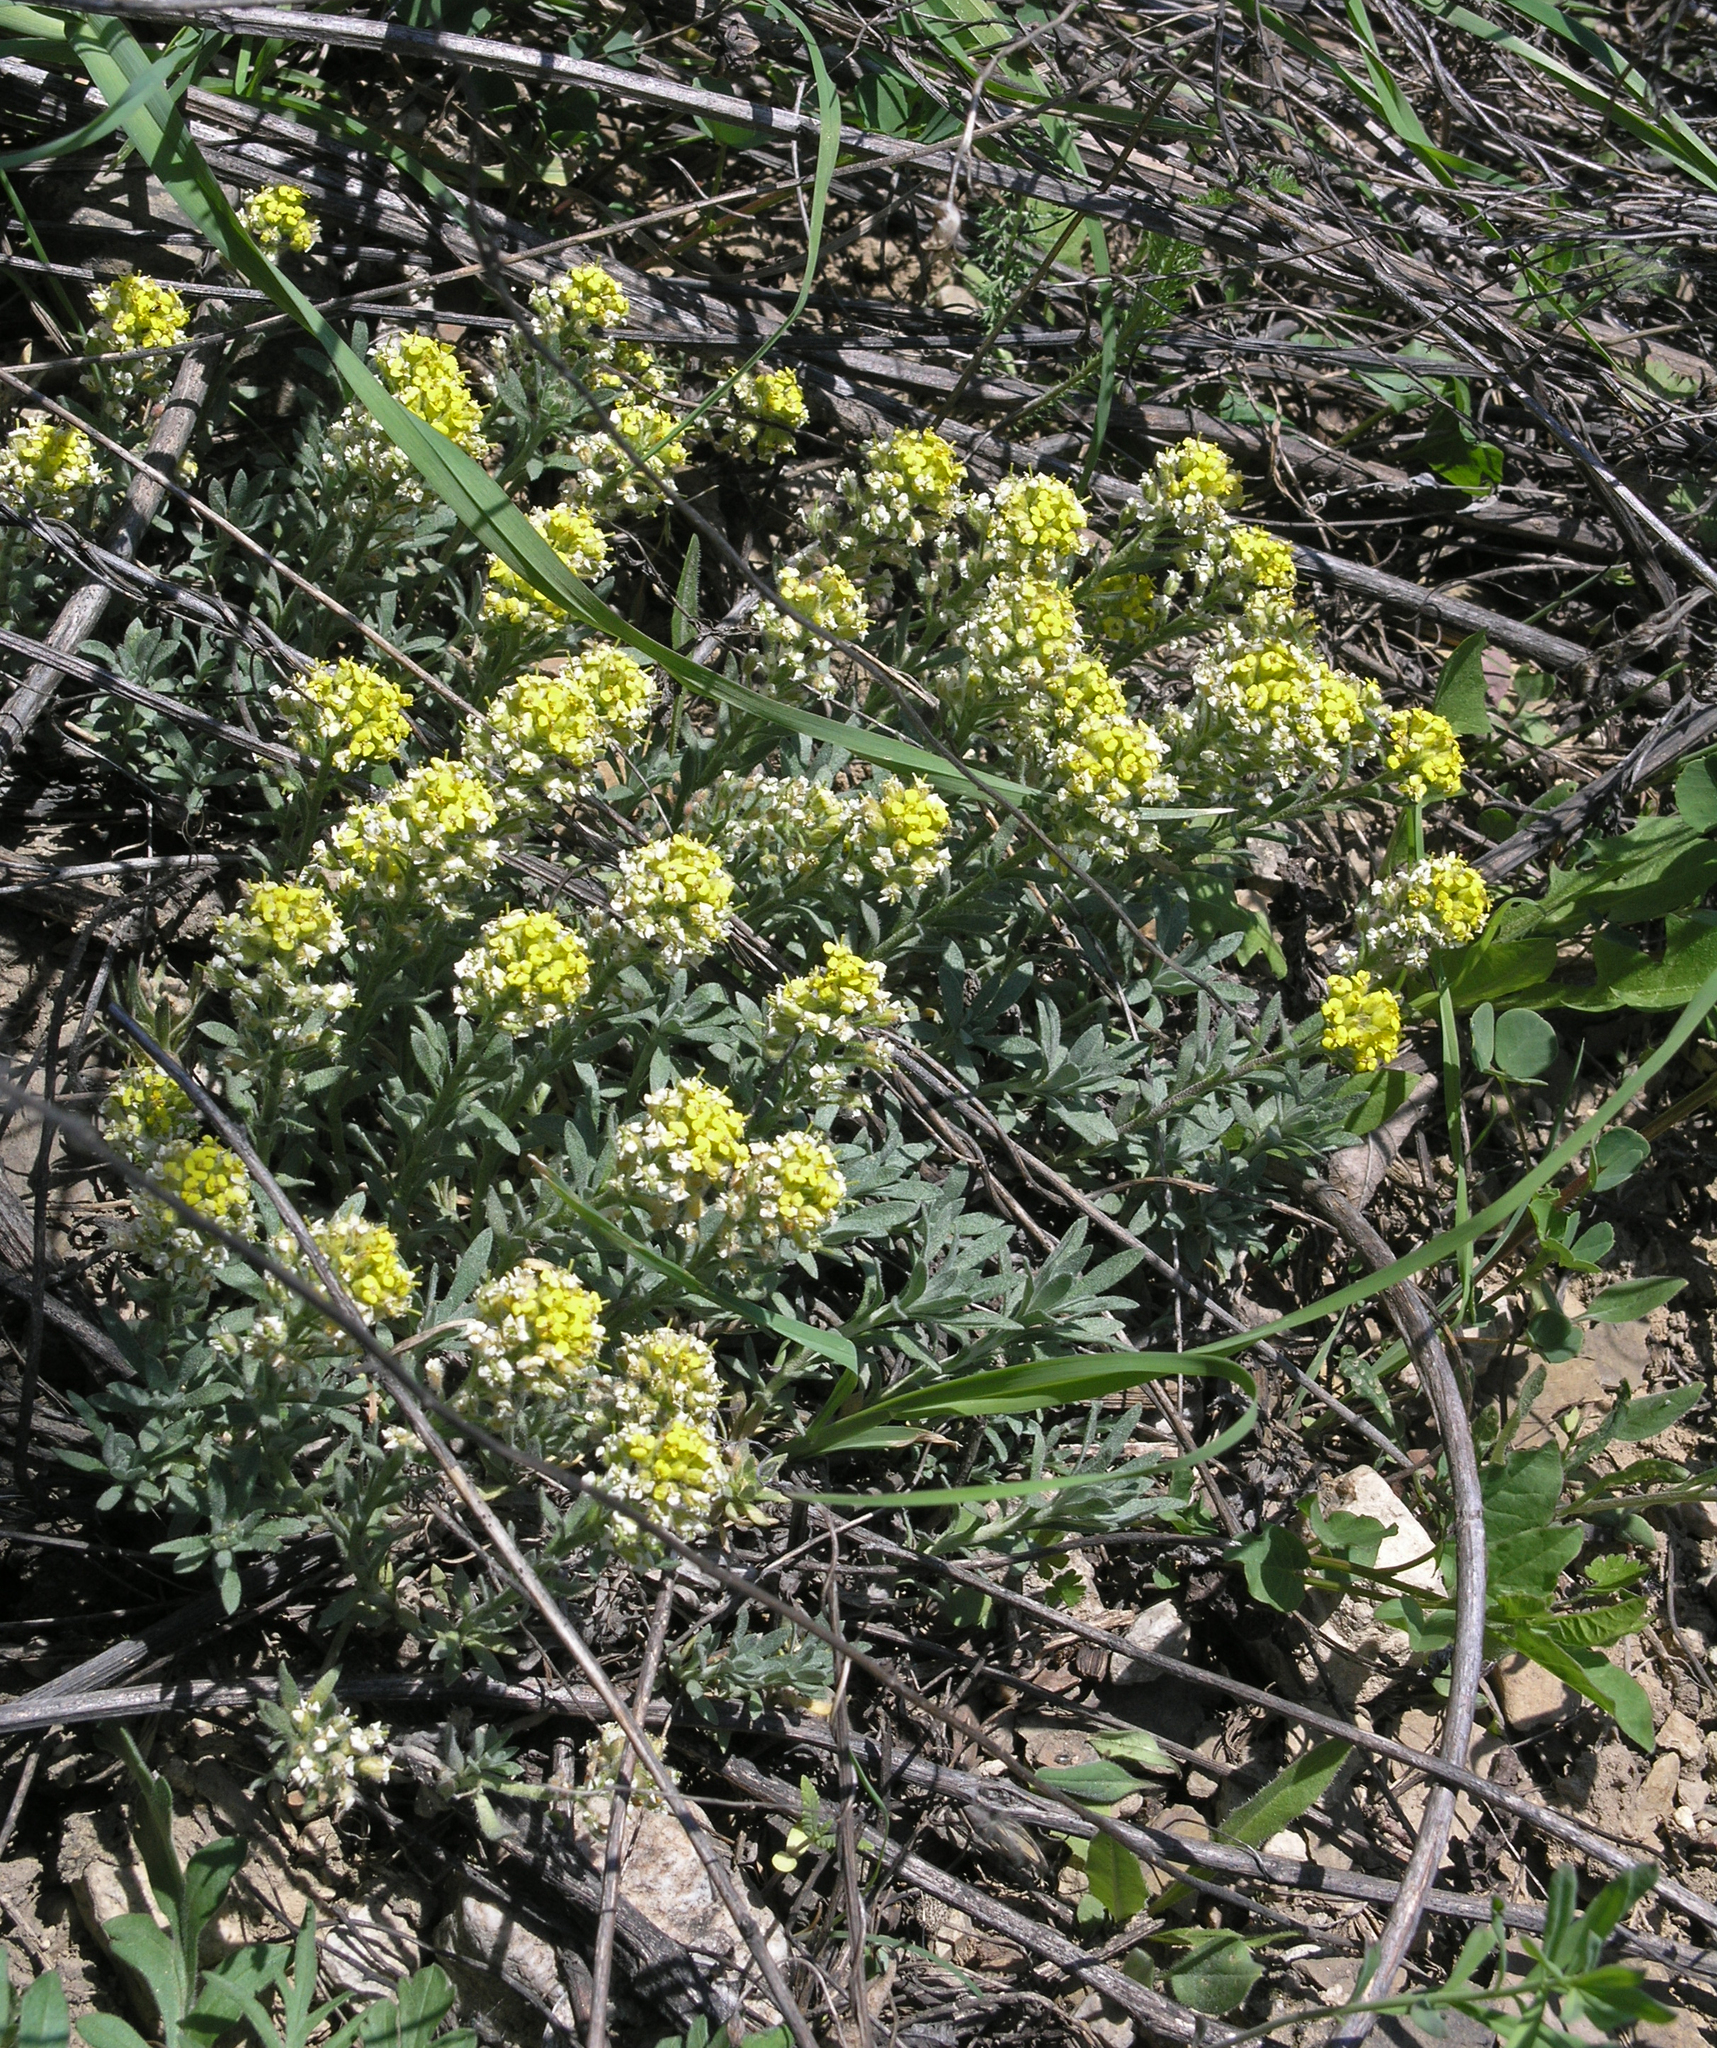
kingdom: Plantae
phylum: Tracheophyta
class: Magnoliopsida
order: Brassicales
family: Brassicaceae
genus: Alyssum
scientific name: Alyssum lenense
